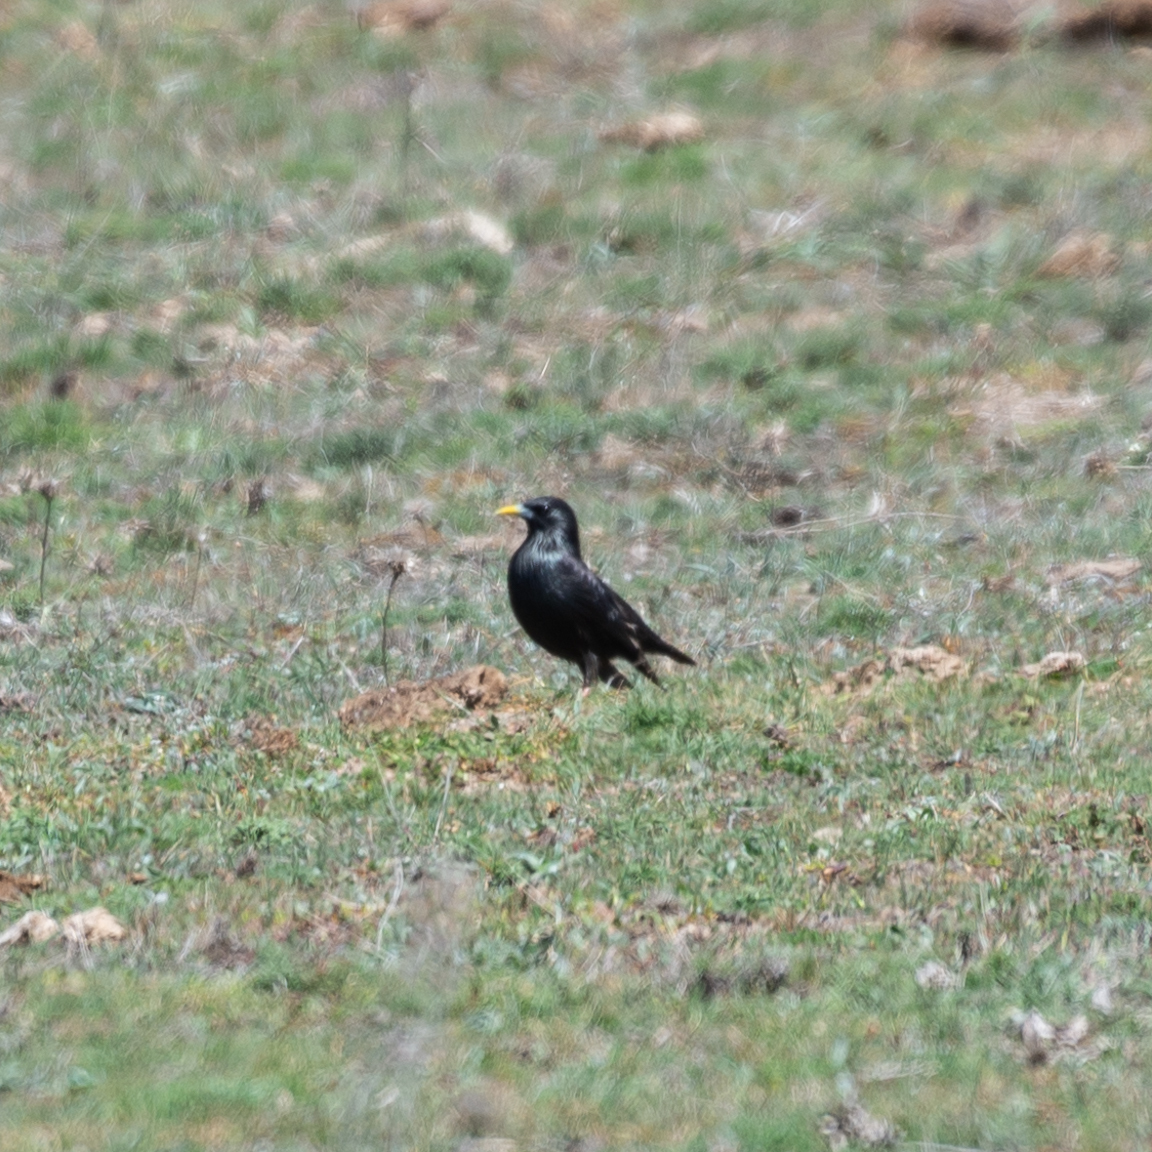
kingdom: Animalia
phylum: Chordata
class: Aves
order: Passeriformes
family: Sturnidae
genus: Sturnus
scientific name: Sturnus unicolor
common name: Spotless starling
